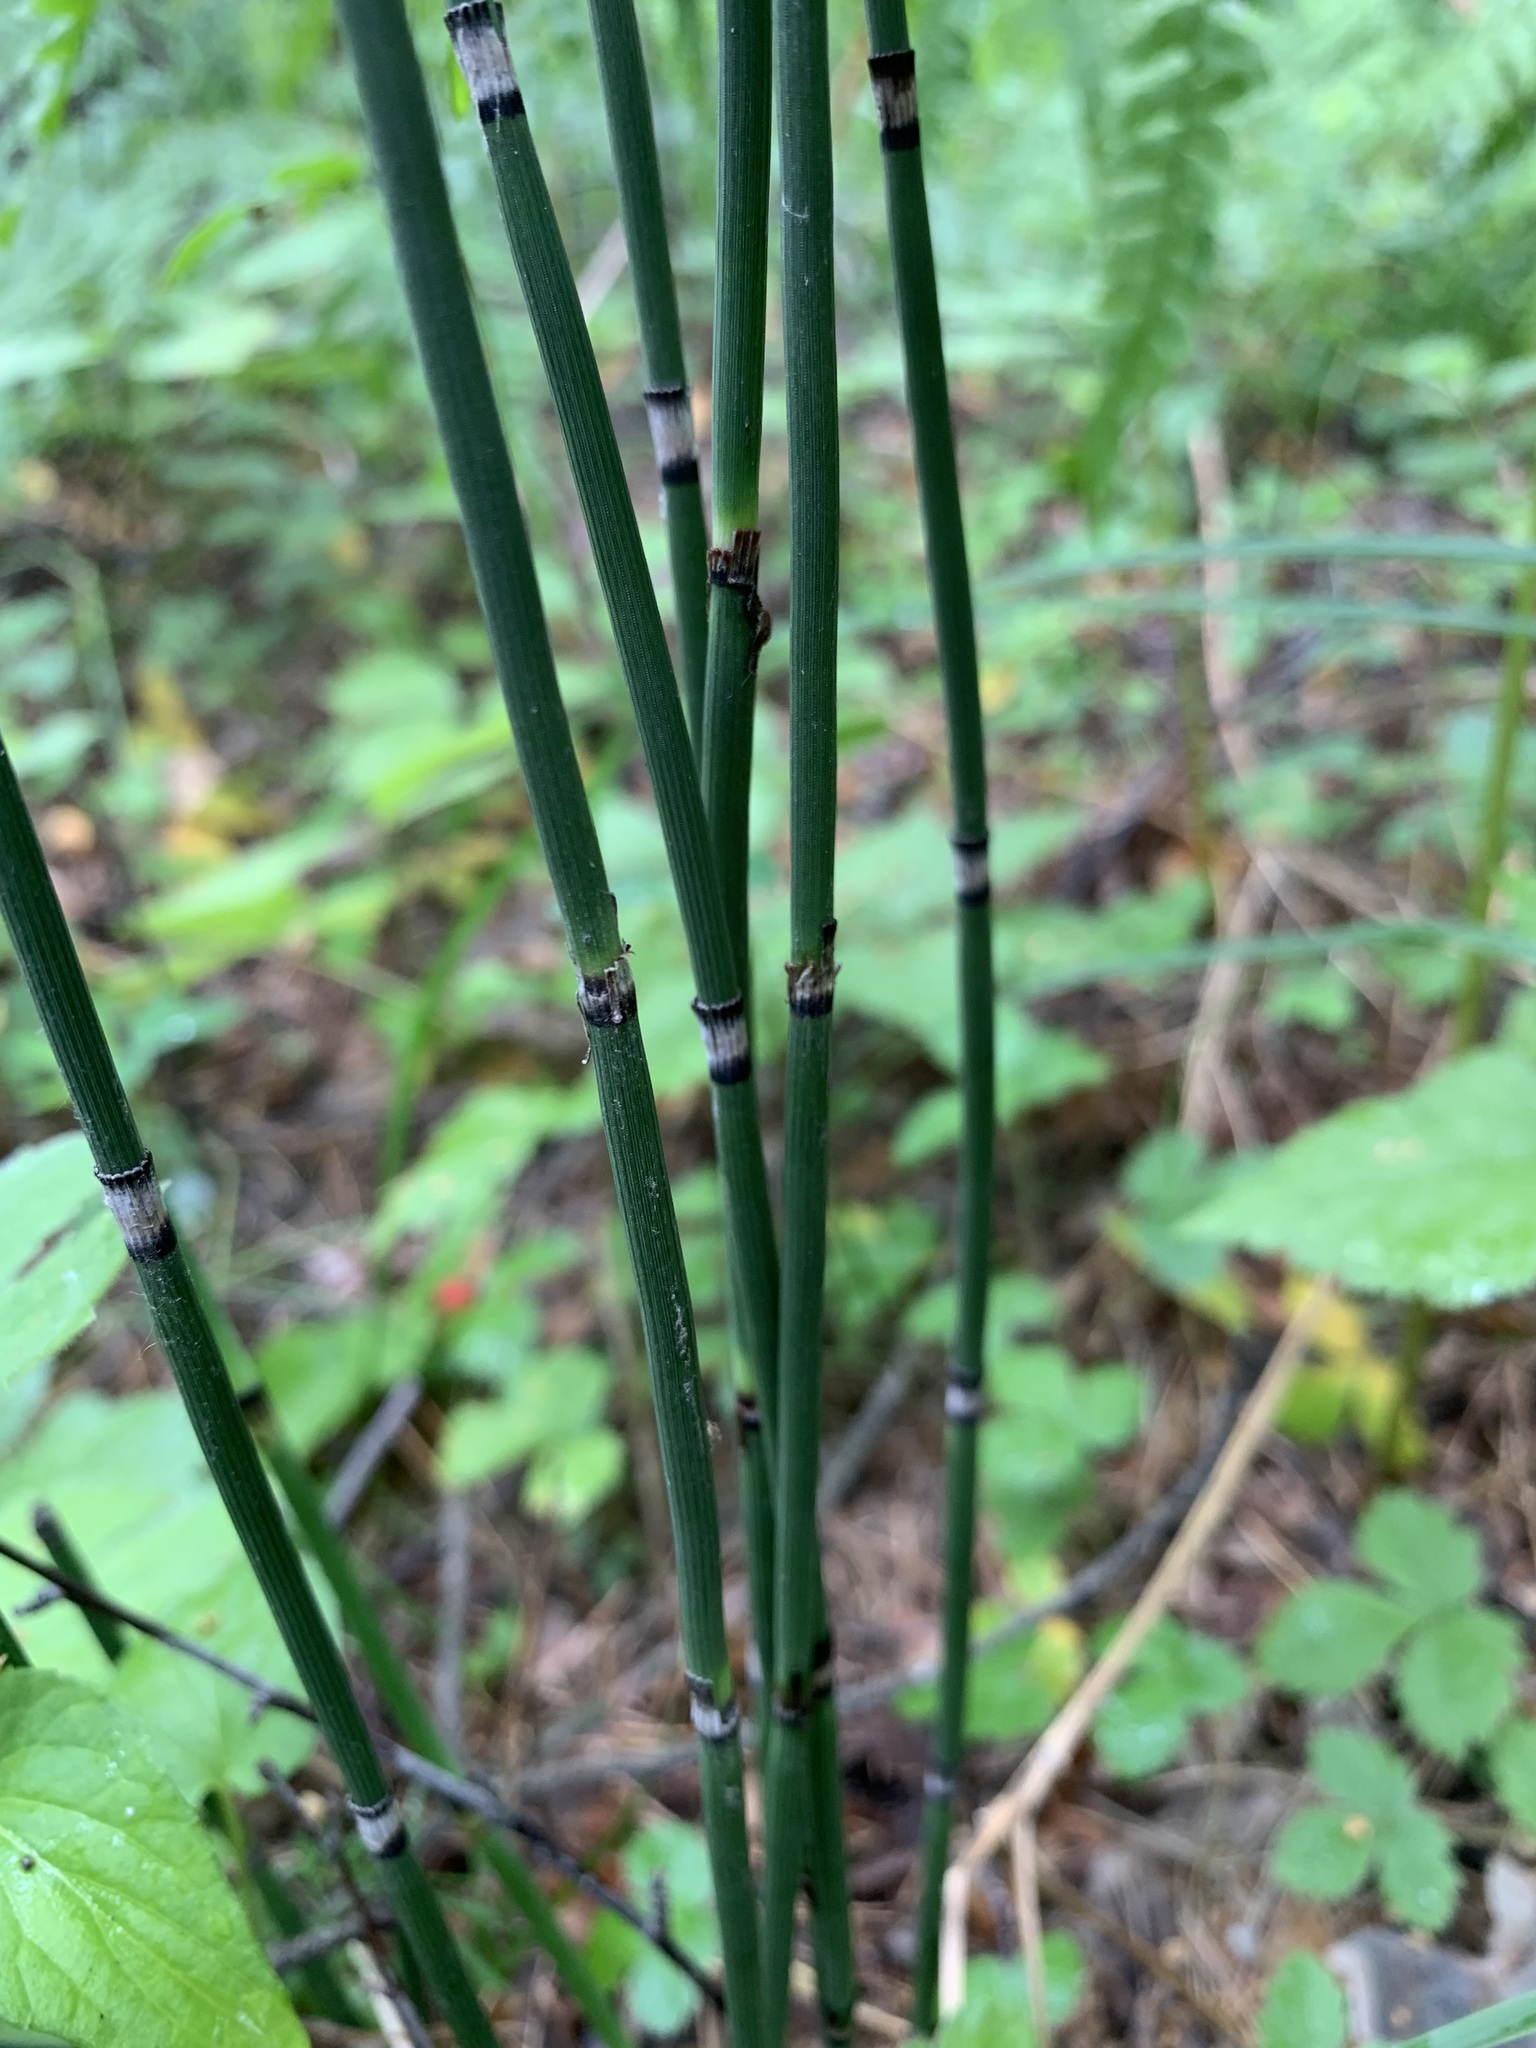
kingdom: Plantae
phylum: Tracheophyta
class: Polypodiopsida
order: Equisetales
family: Equisetaceae
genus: Equisetum
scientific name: Equisetum hyemale
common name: Rough horsetail
